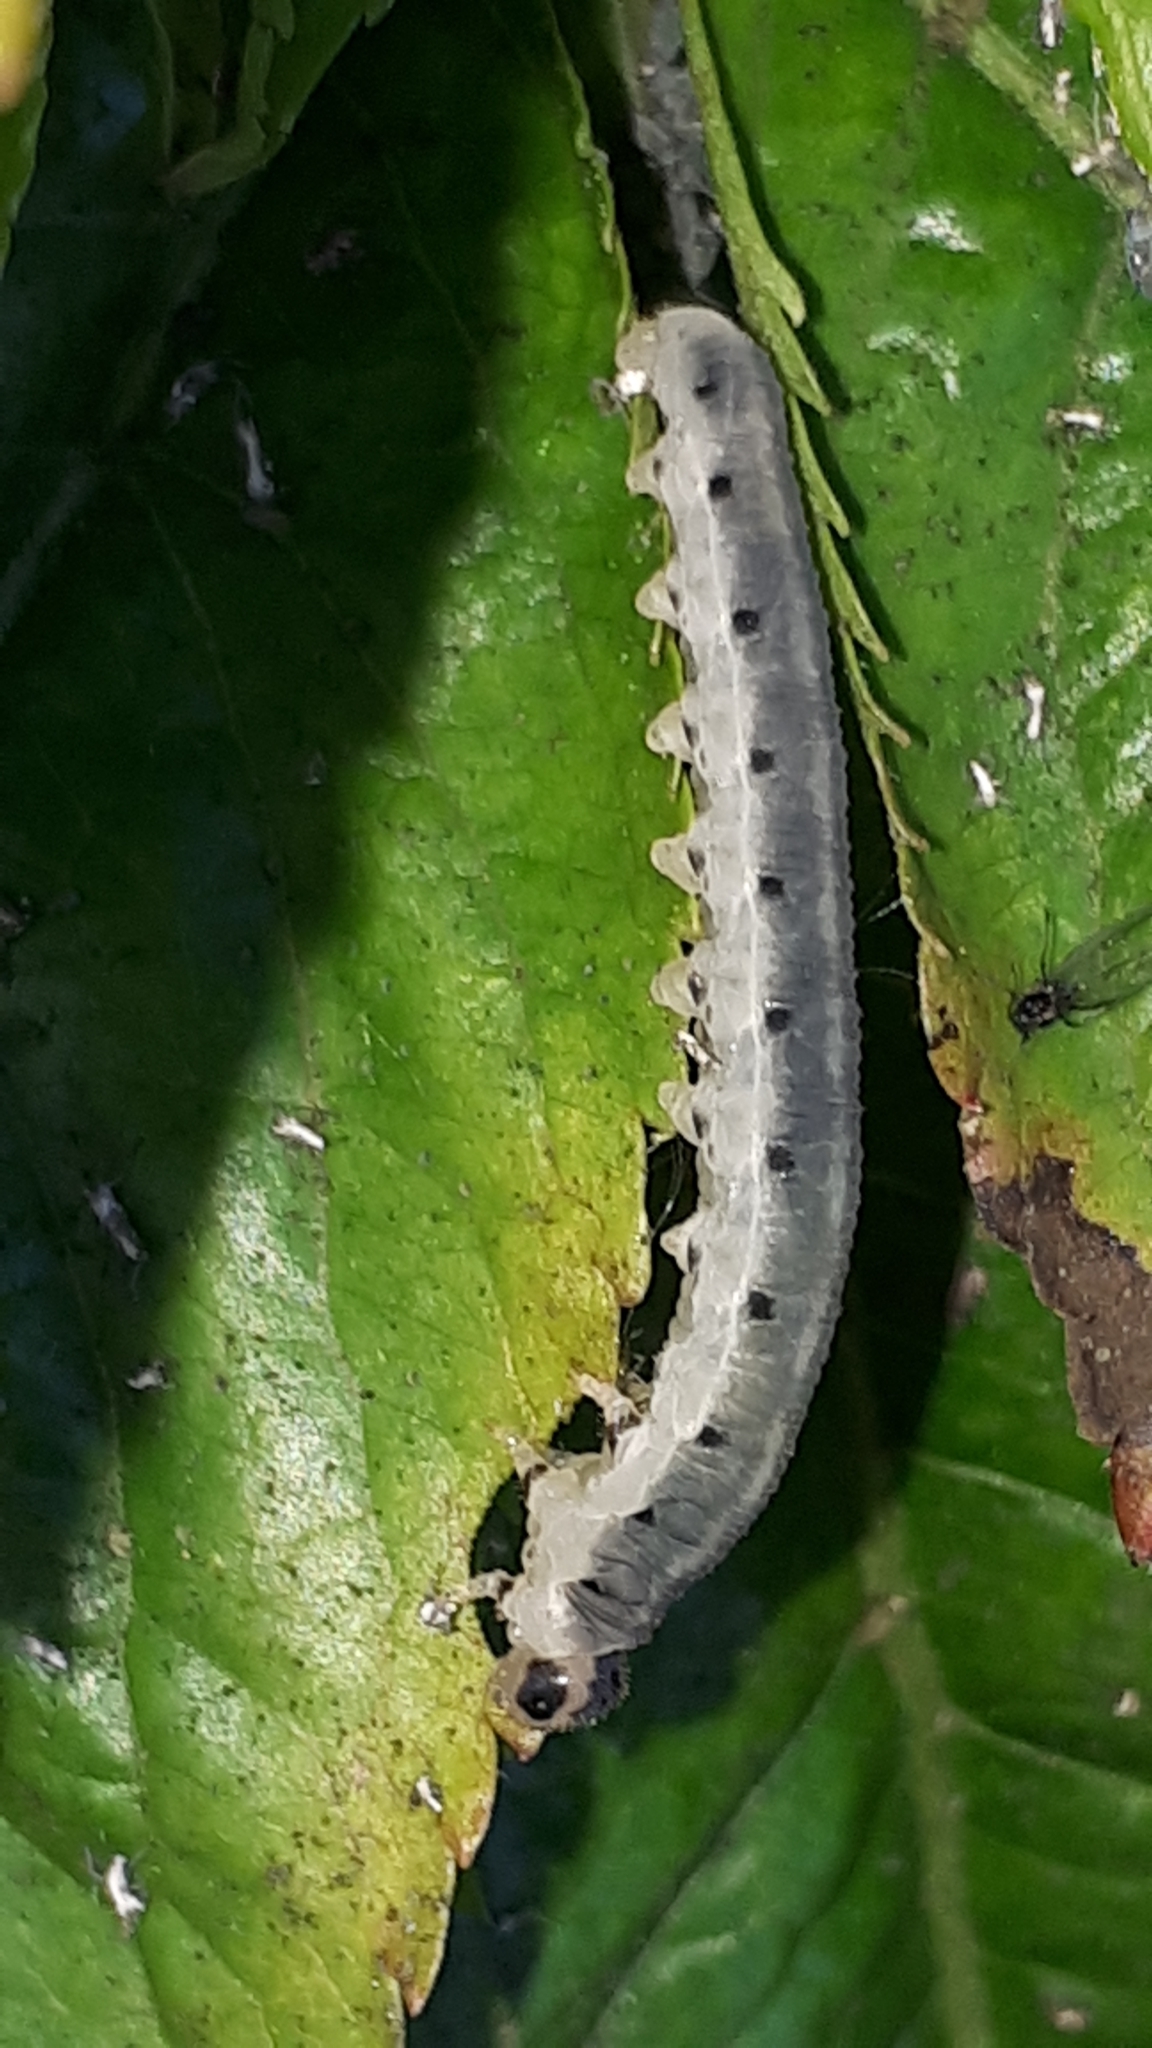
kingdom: Animalia
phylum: Arthropoda
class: Insecta
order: Hymenoptera
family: Tenthredinidae
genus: Macrophya
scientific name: Macrophya alboannulata
